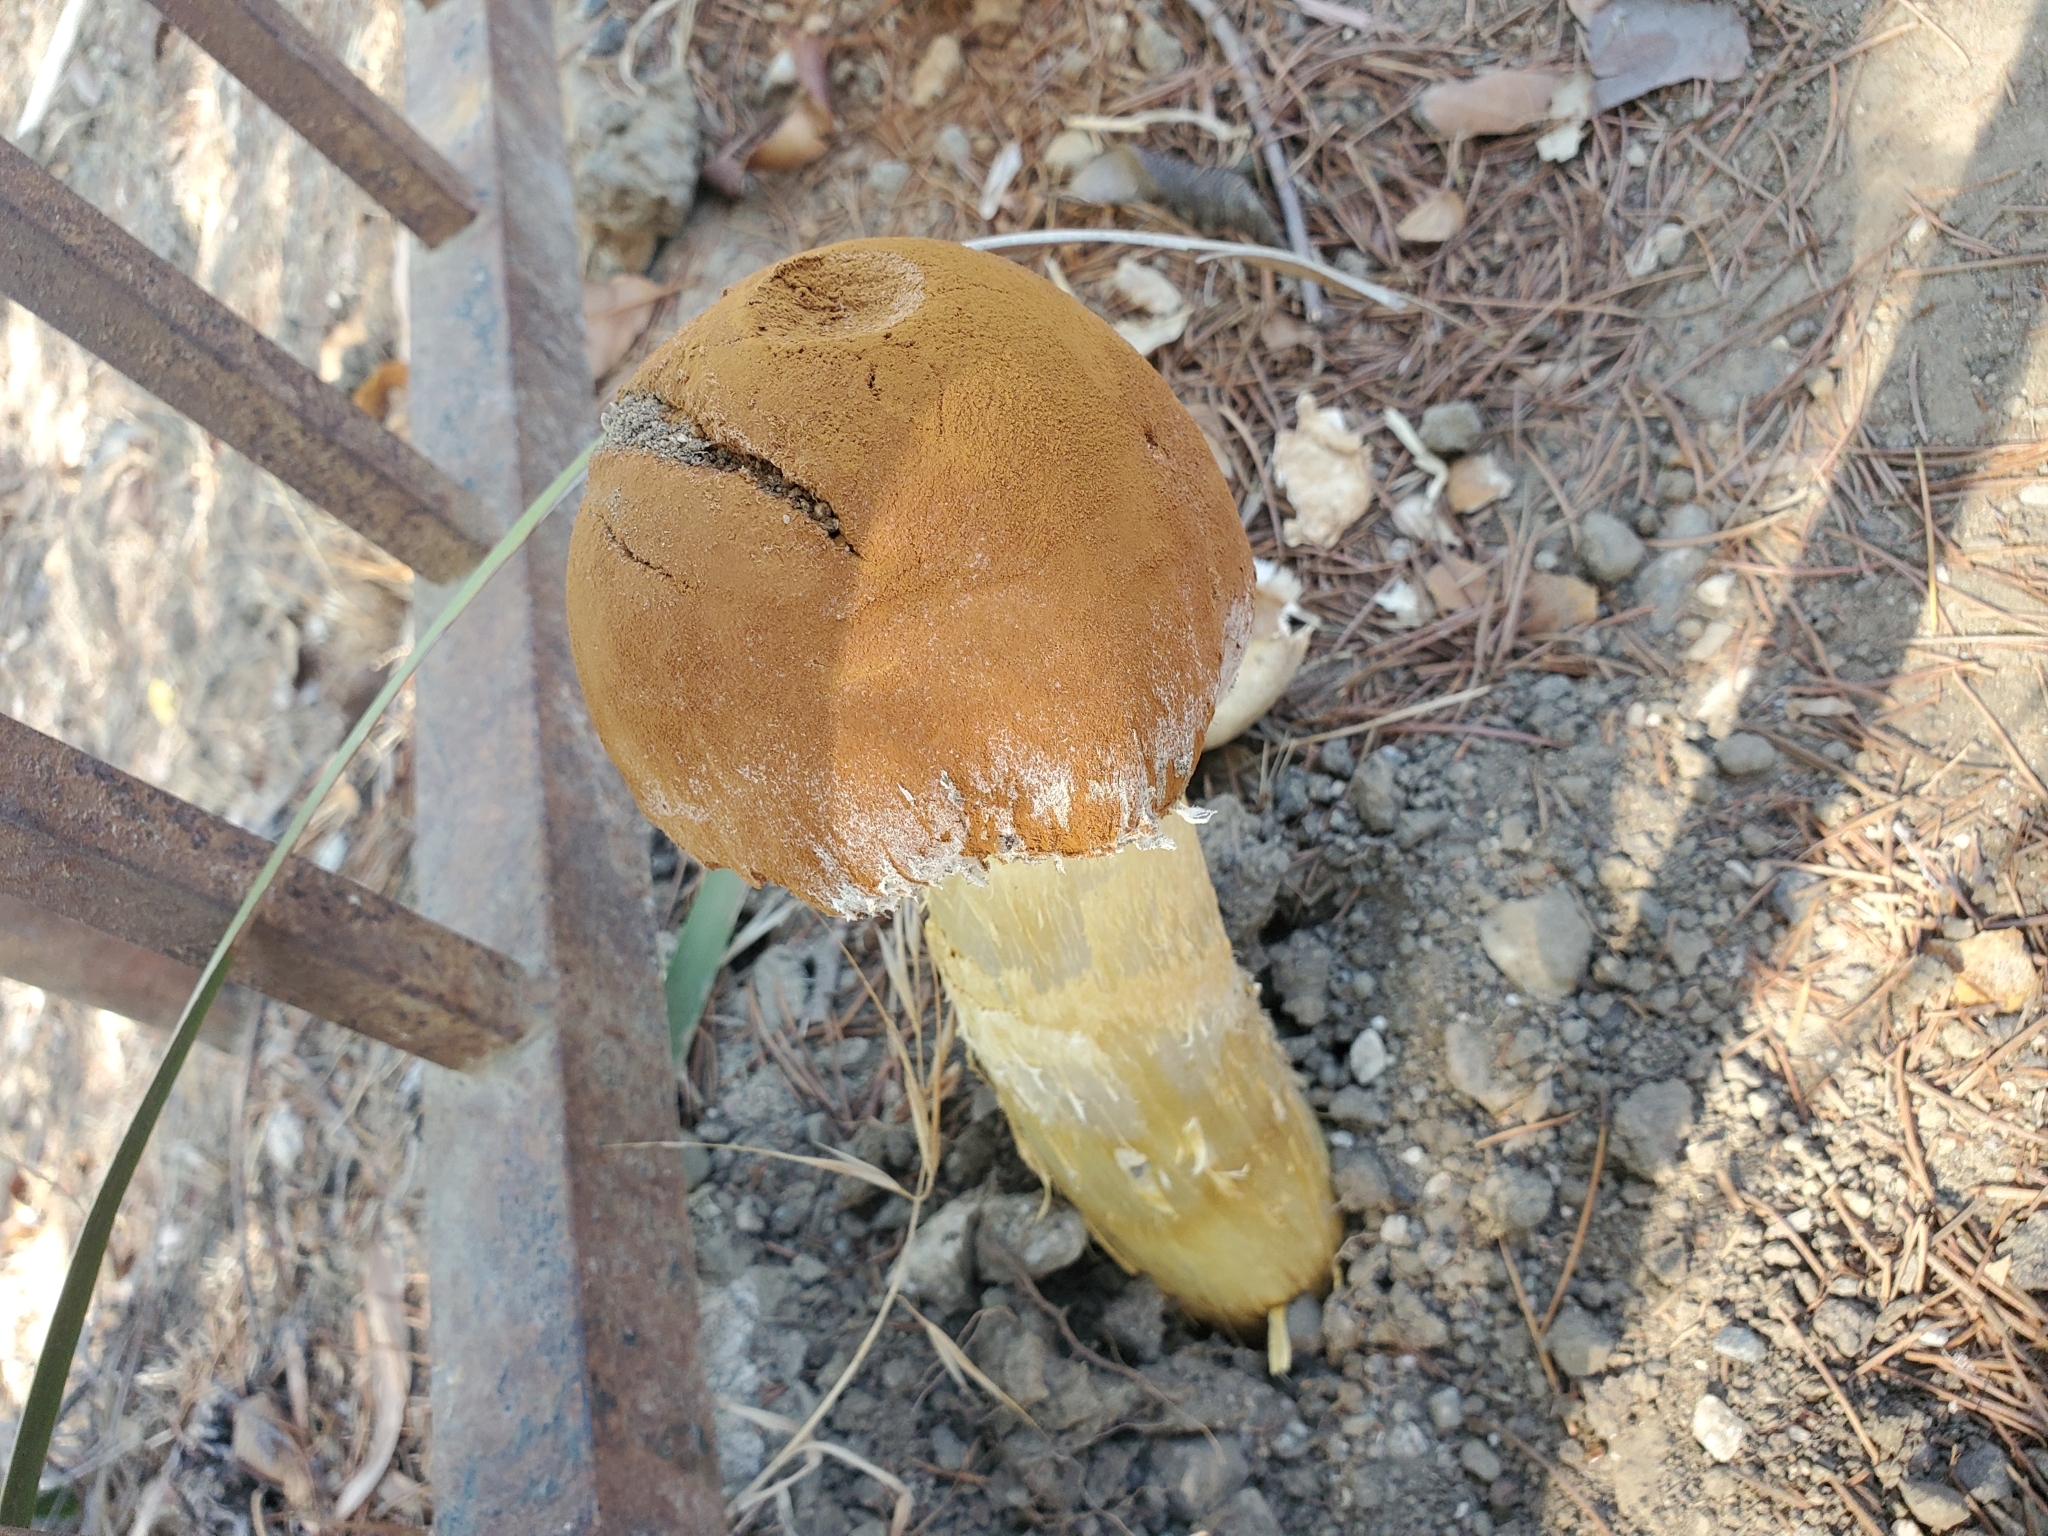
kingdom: Fungi
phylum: Basidiomycota
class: Agaricomycetes
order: Agaricales
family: Agaricaceae
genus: Battarrea
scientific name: Battarrea phalloides
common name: Sandy stiltball
